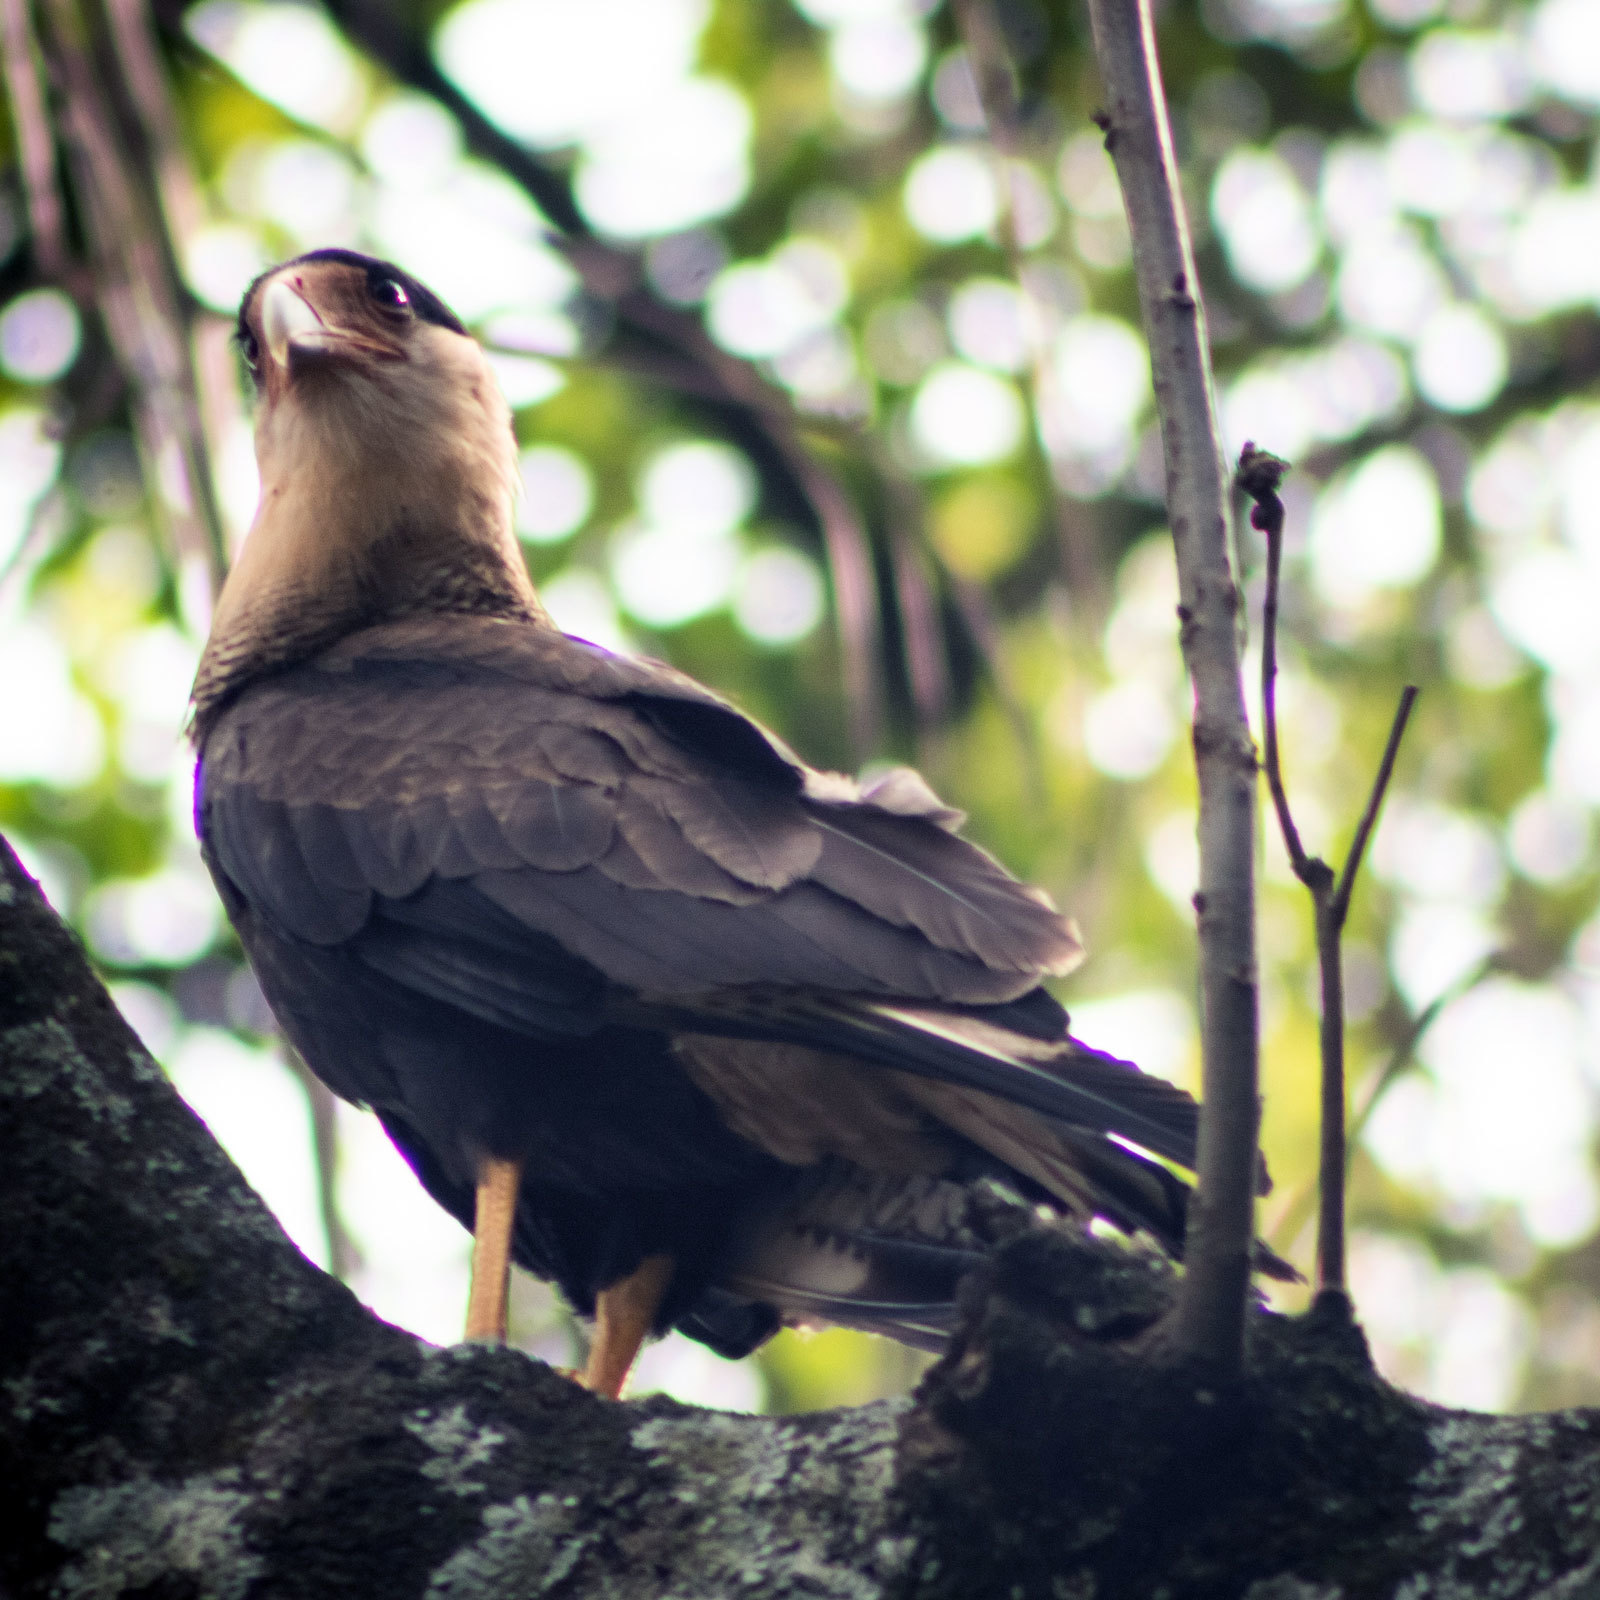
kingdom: Animalia
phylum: Chordata
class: Aves
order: Falconiformes
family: Falconidae
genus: Caracara
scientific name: Caracara plancus
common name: Southern caracara
